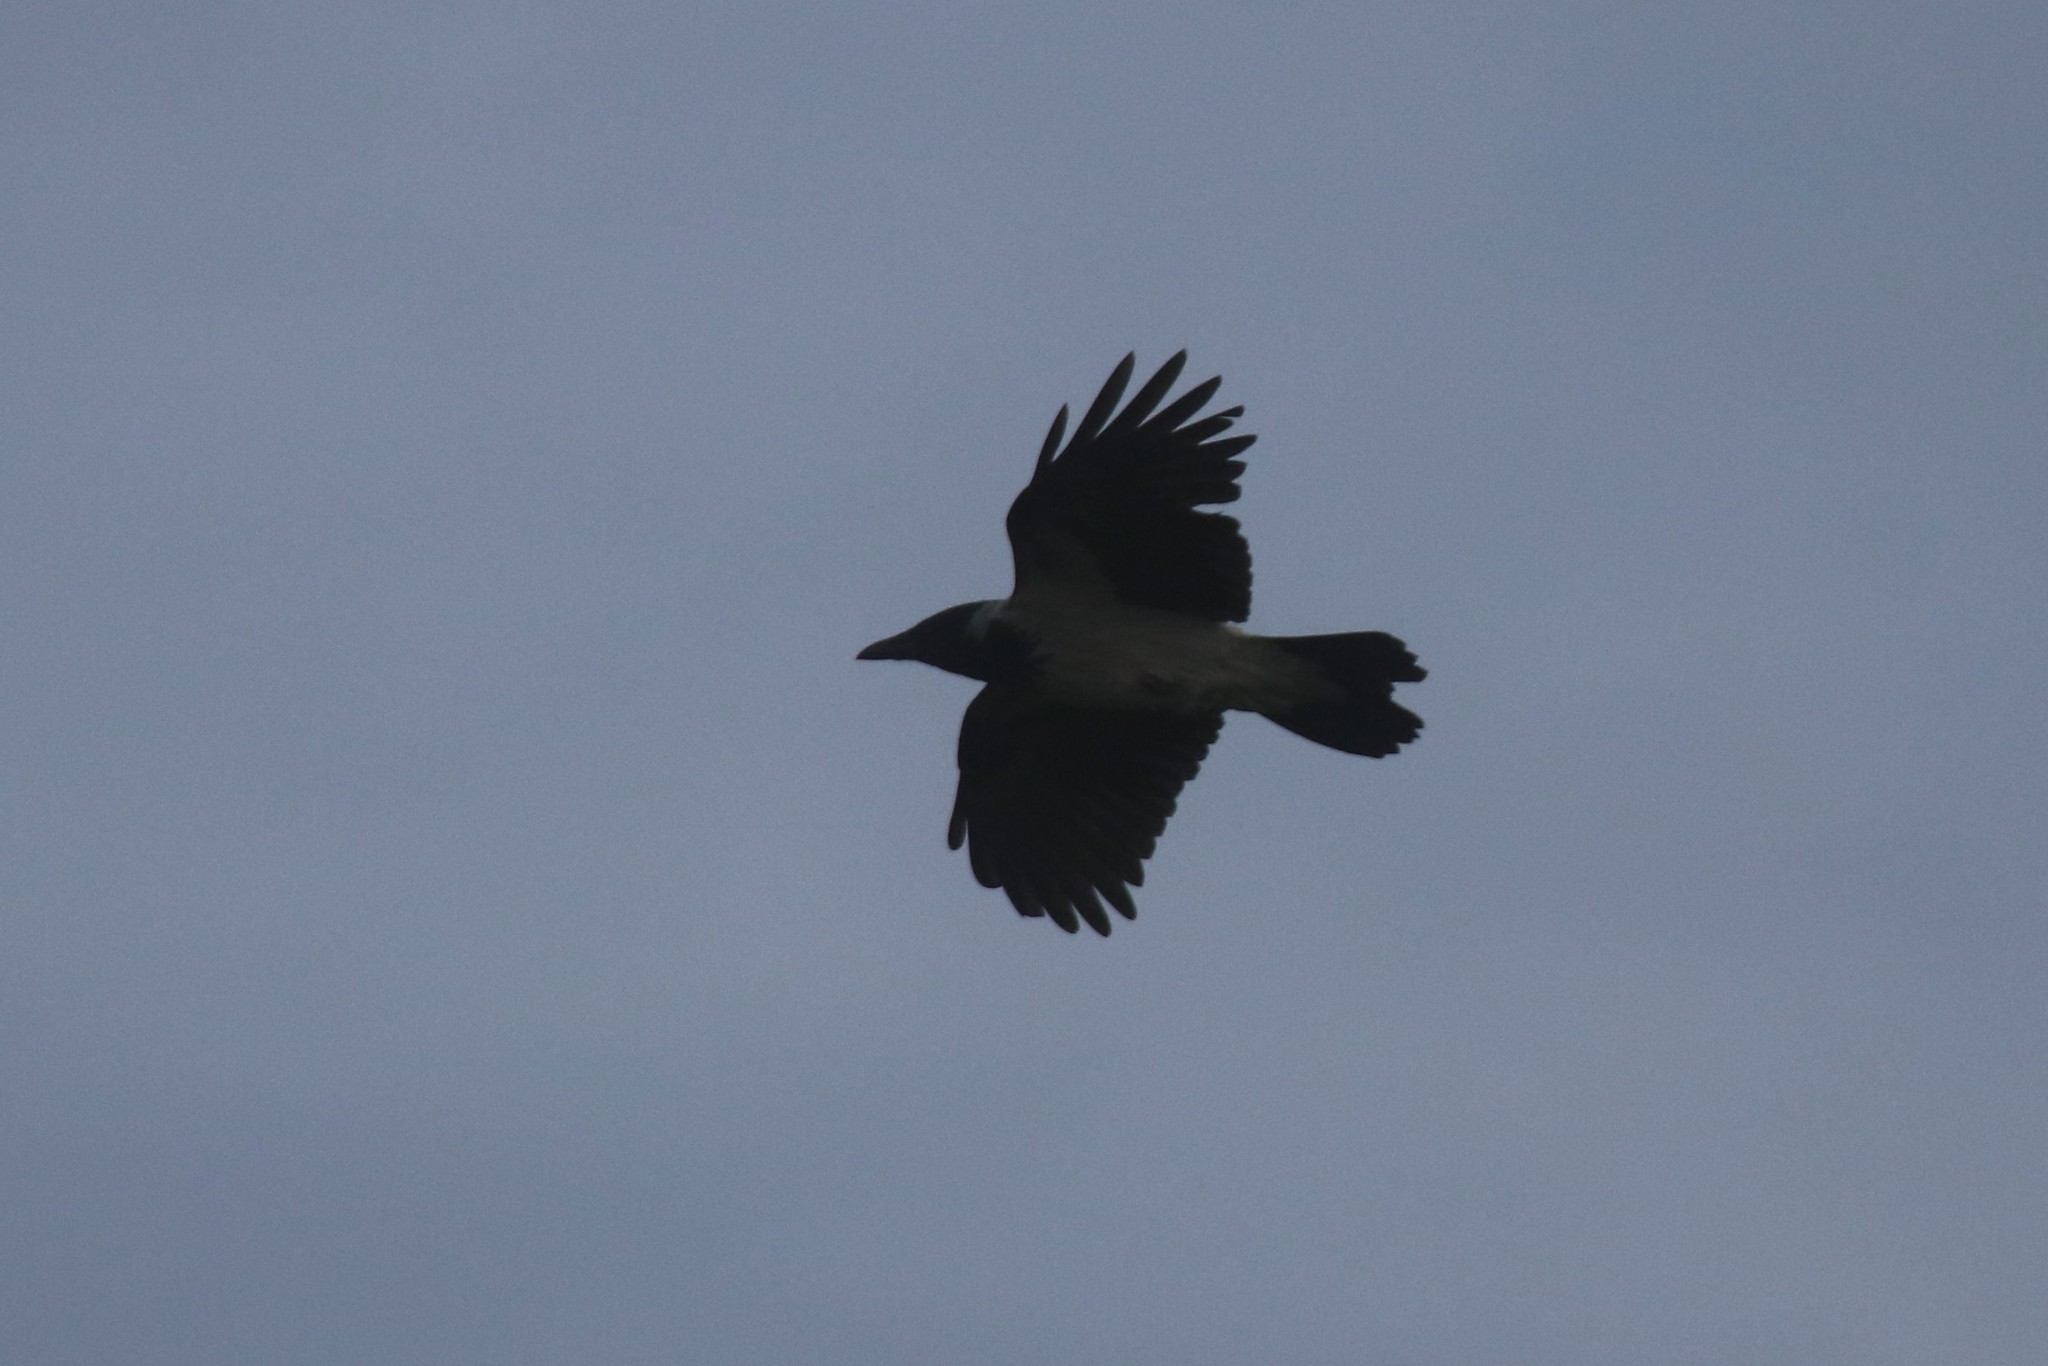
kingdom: Animalia
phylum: Chordata
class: Aves
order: Passeriformes
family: Corvidae
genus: Corvus
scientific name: Corvus cornix
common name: Hooded crow
